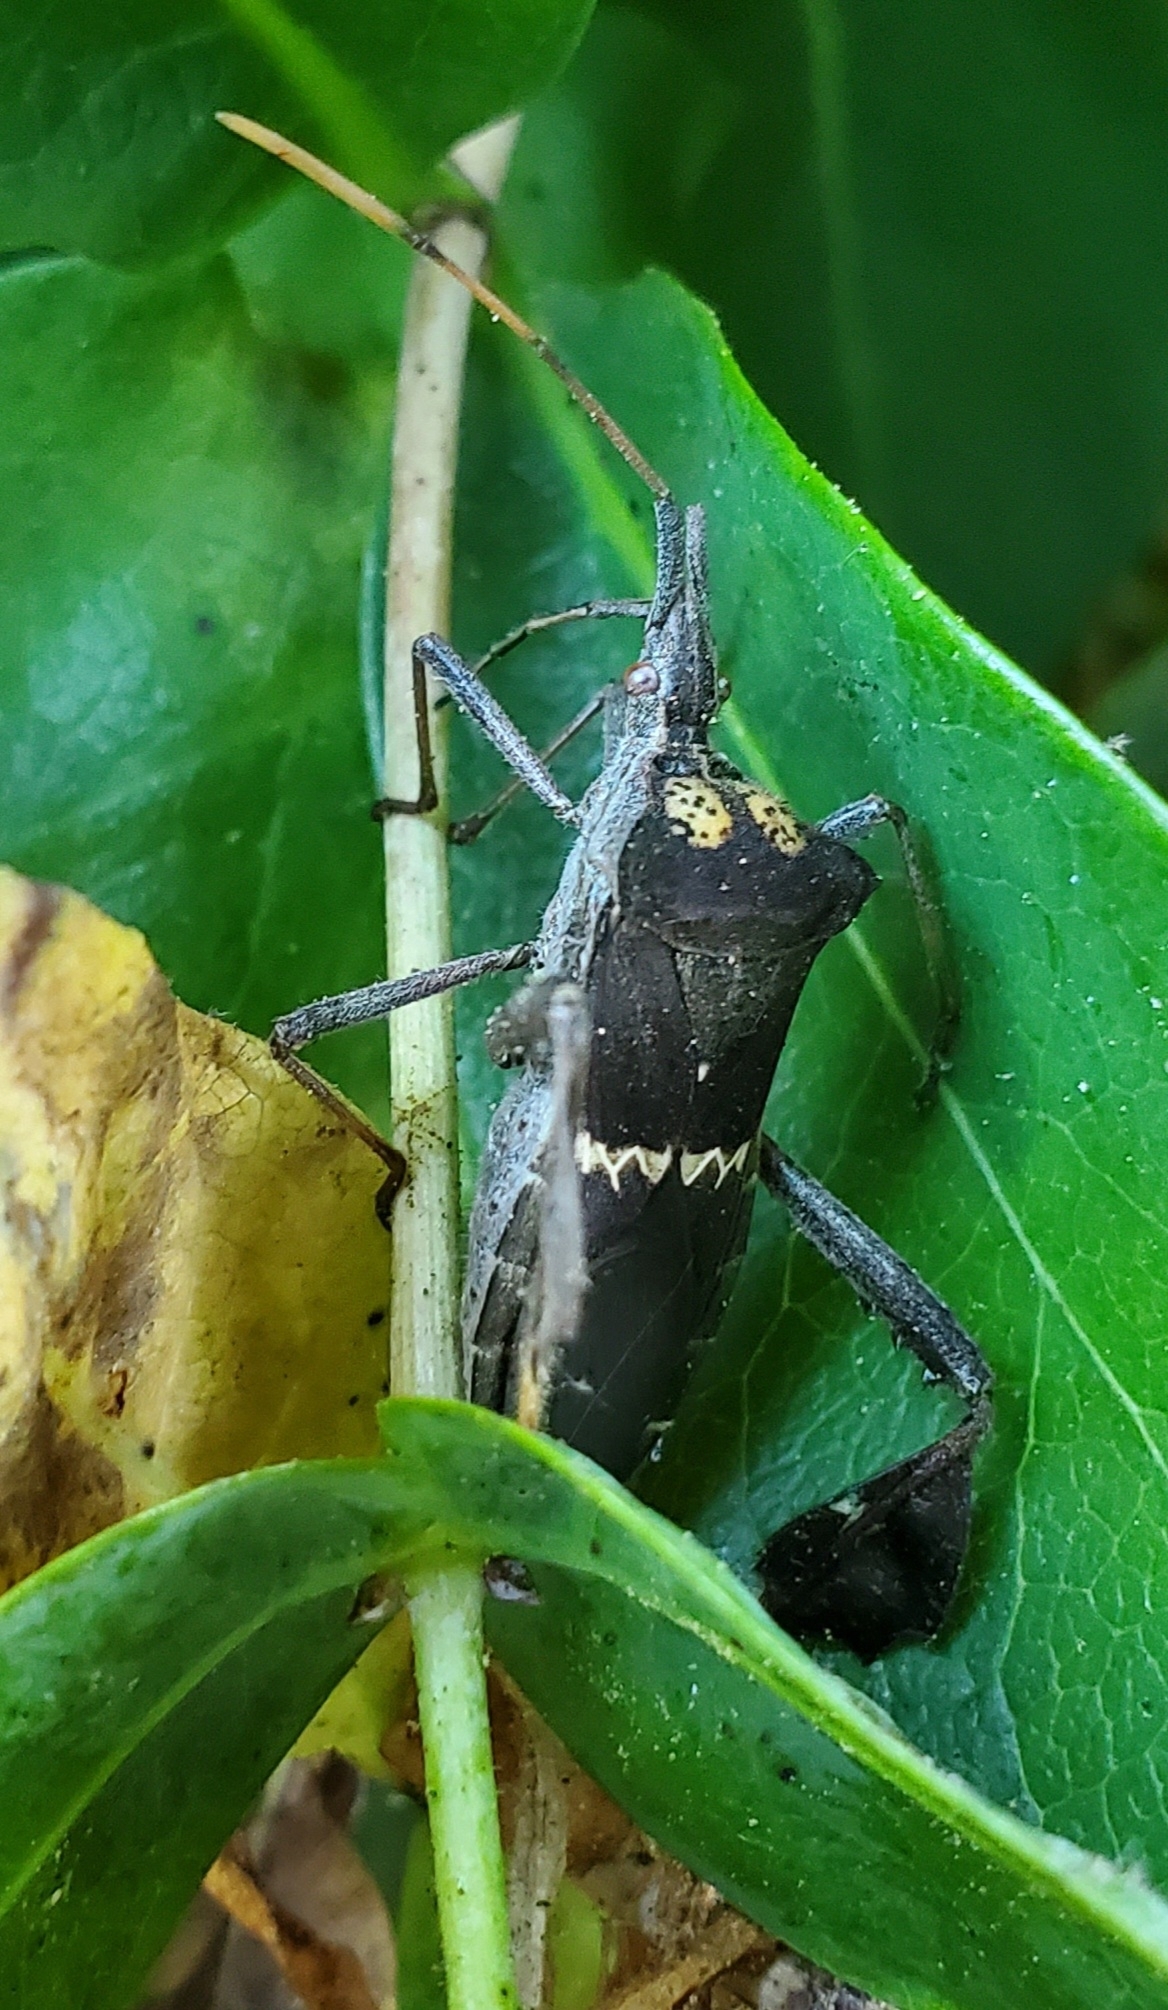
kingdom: Animalia
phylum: Arthropoda
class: Insecta
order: Hemiptera
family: Coreidae
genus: Leptoglossus
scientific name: Leptoglossus zonatus
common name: Large-legged bug
